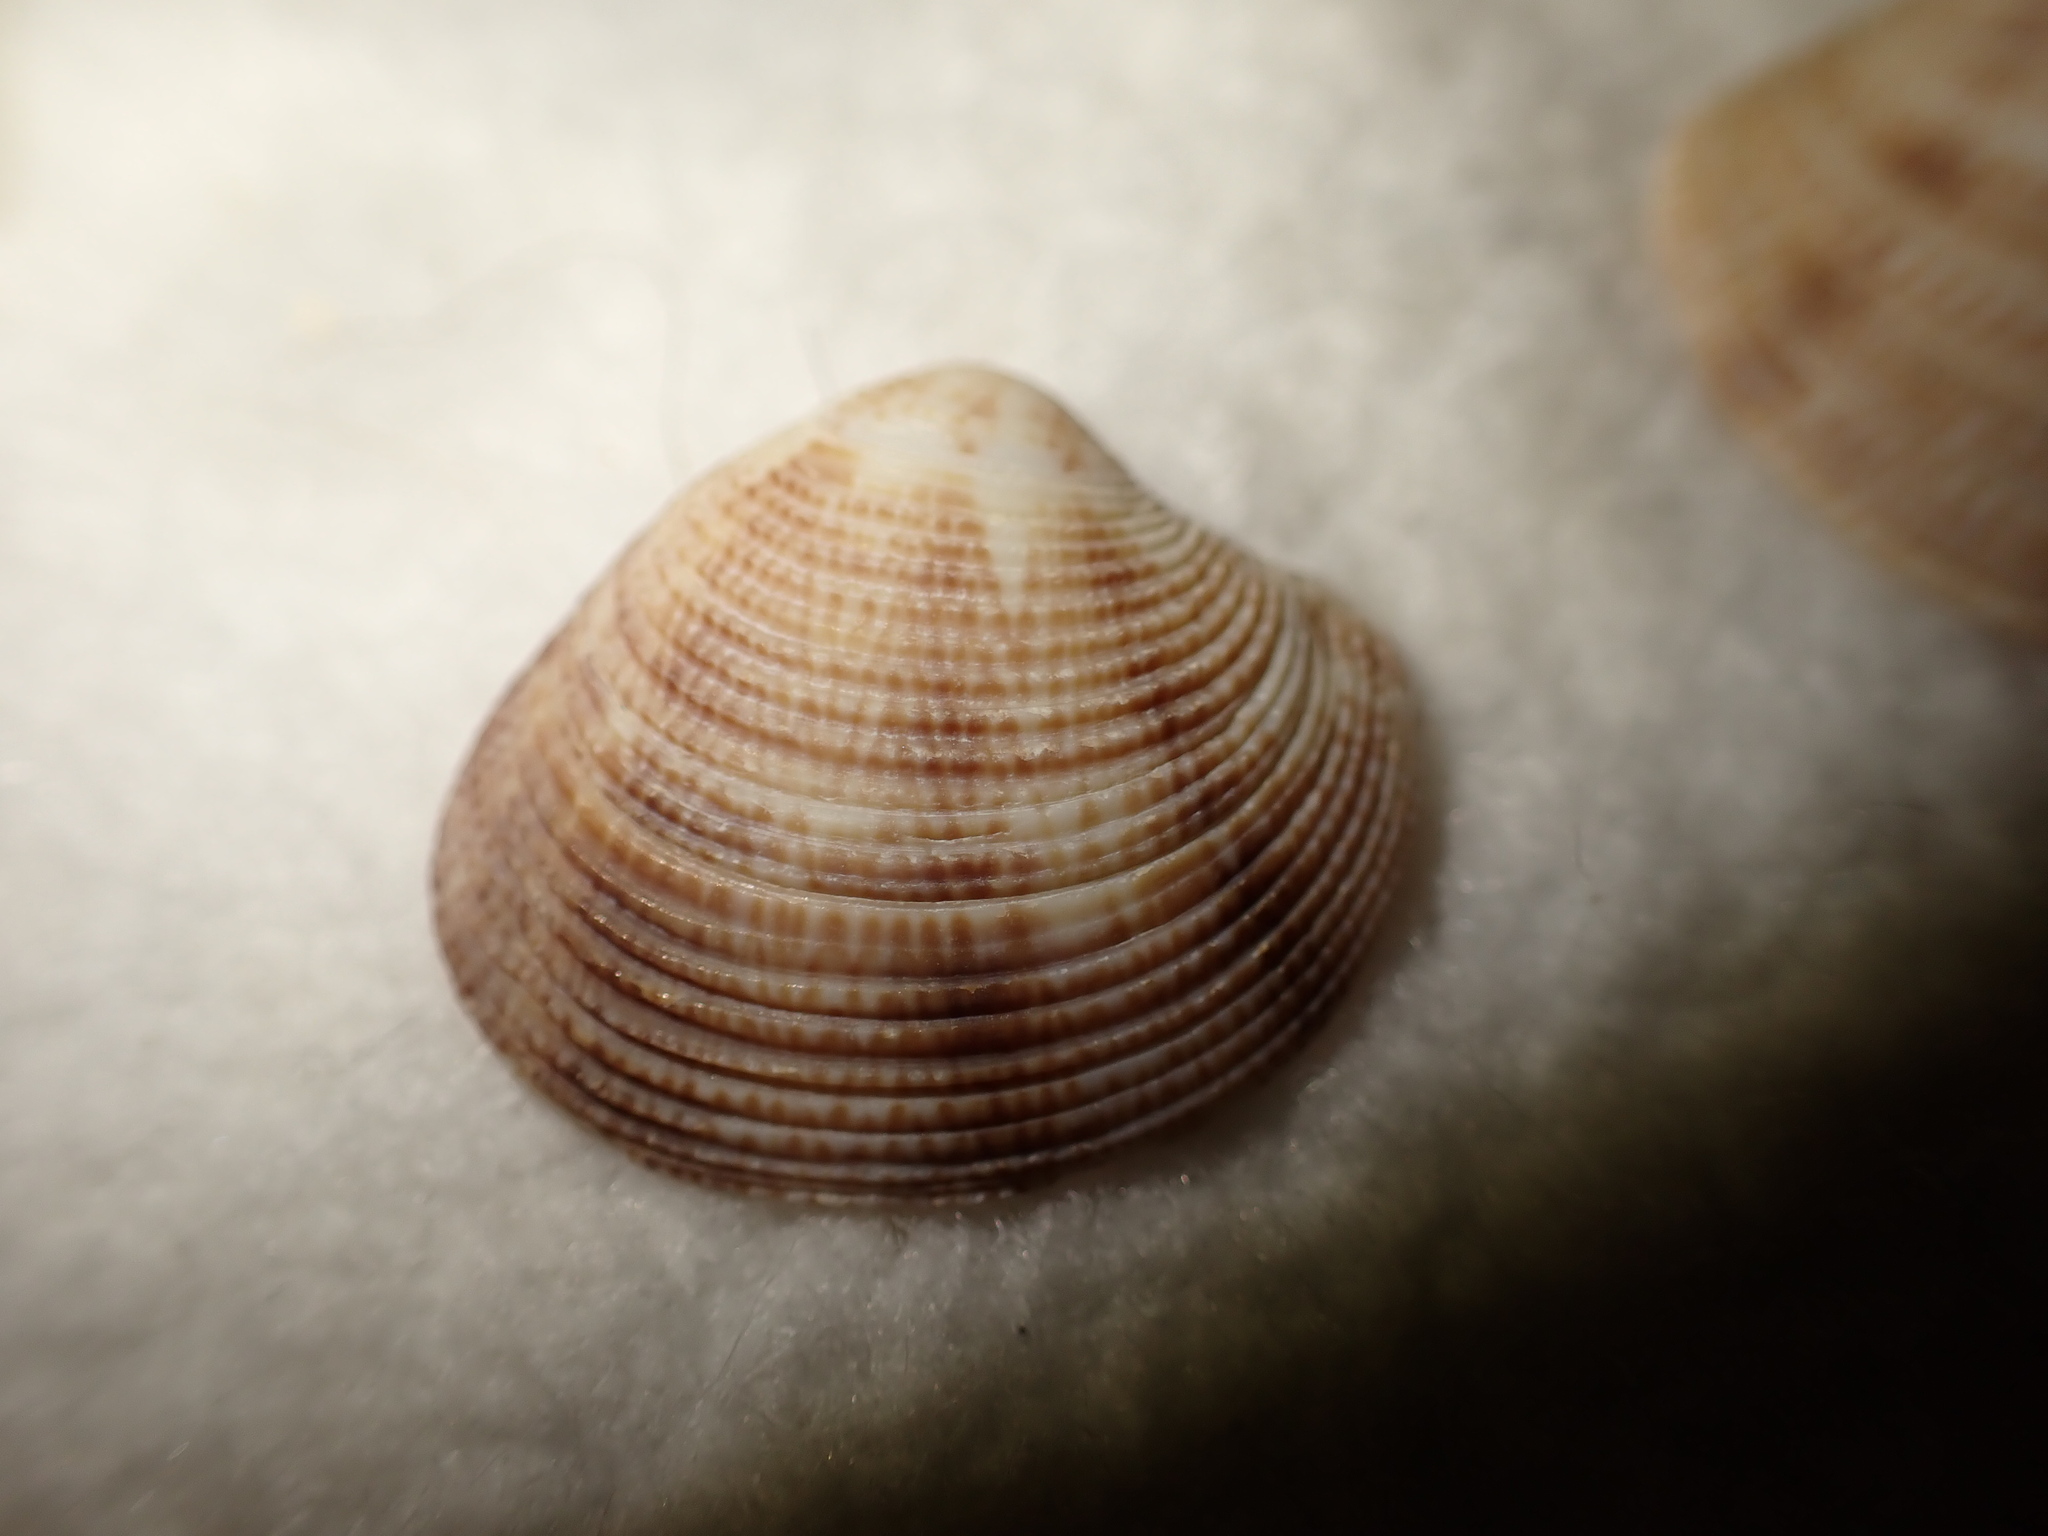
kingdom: Animalia
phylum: Mollusca
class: Bivalvia
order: Venerida
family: Veneridae
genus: Chamelea
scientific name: Chamelea striatula
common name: Striped venus
